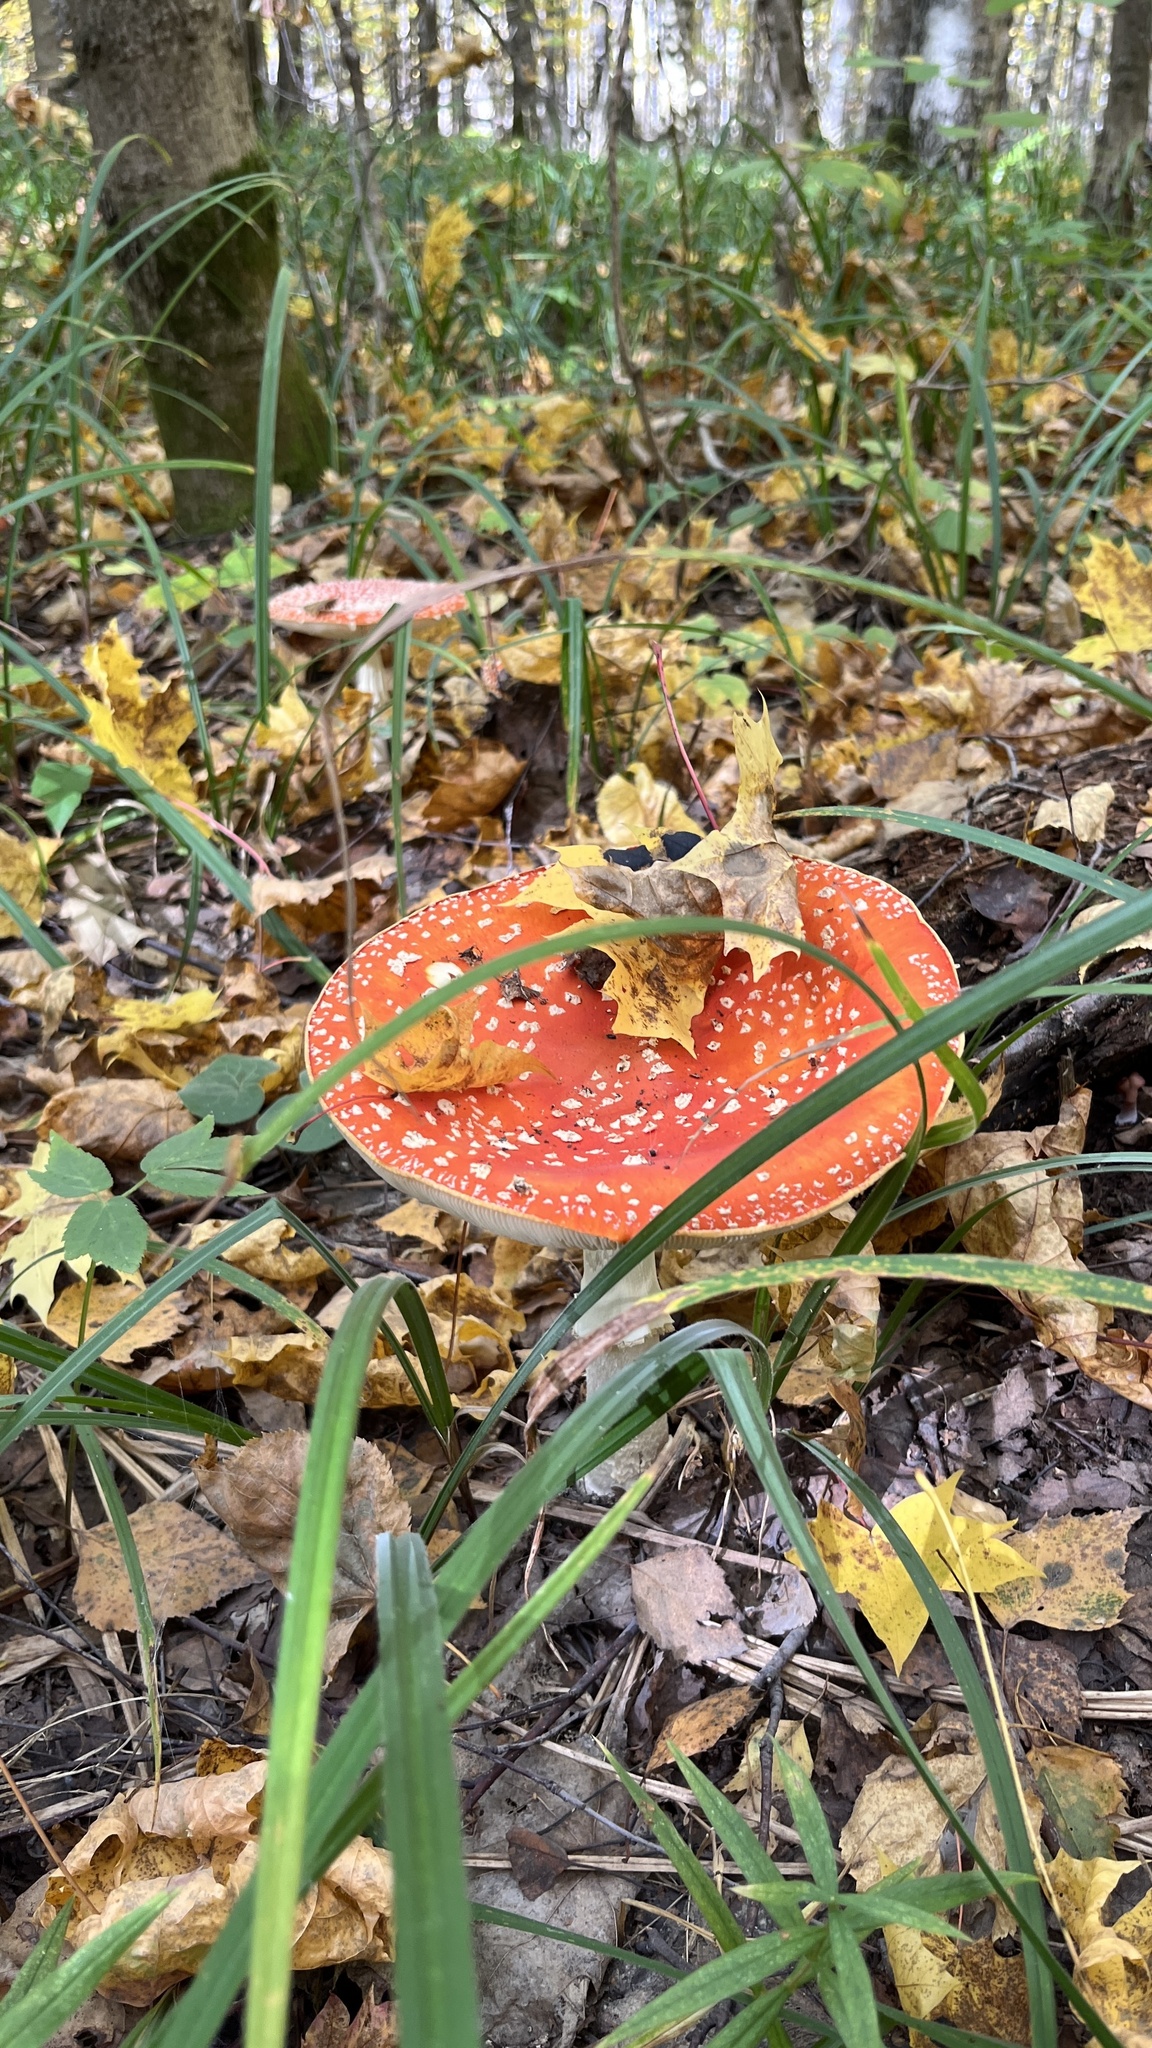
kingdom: Fungi
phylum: Basidiomycota
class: Agaricomycetes
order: Agaricales
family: Amanitaceae
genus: Amanita
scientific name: Amanita muscaria
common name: Fly agaric
